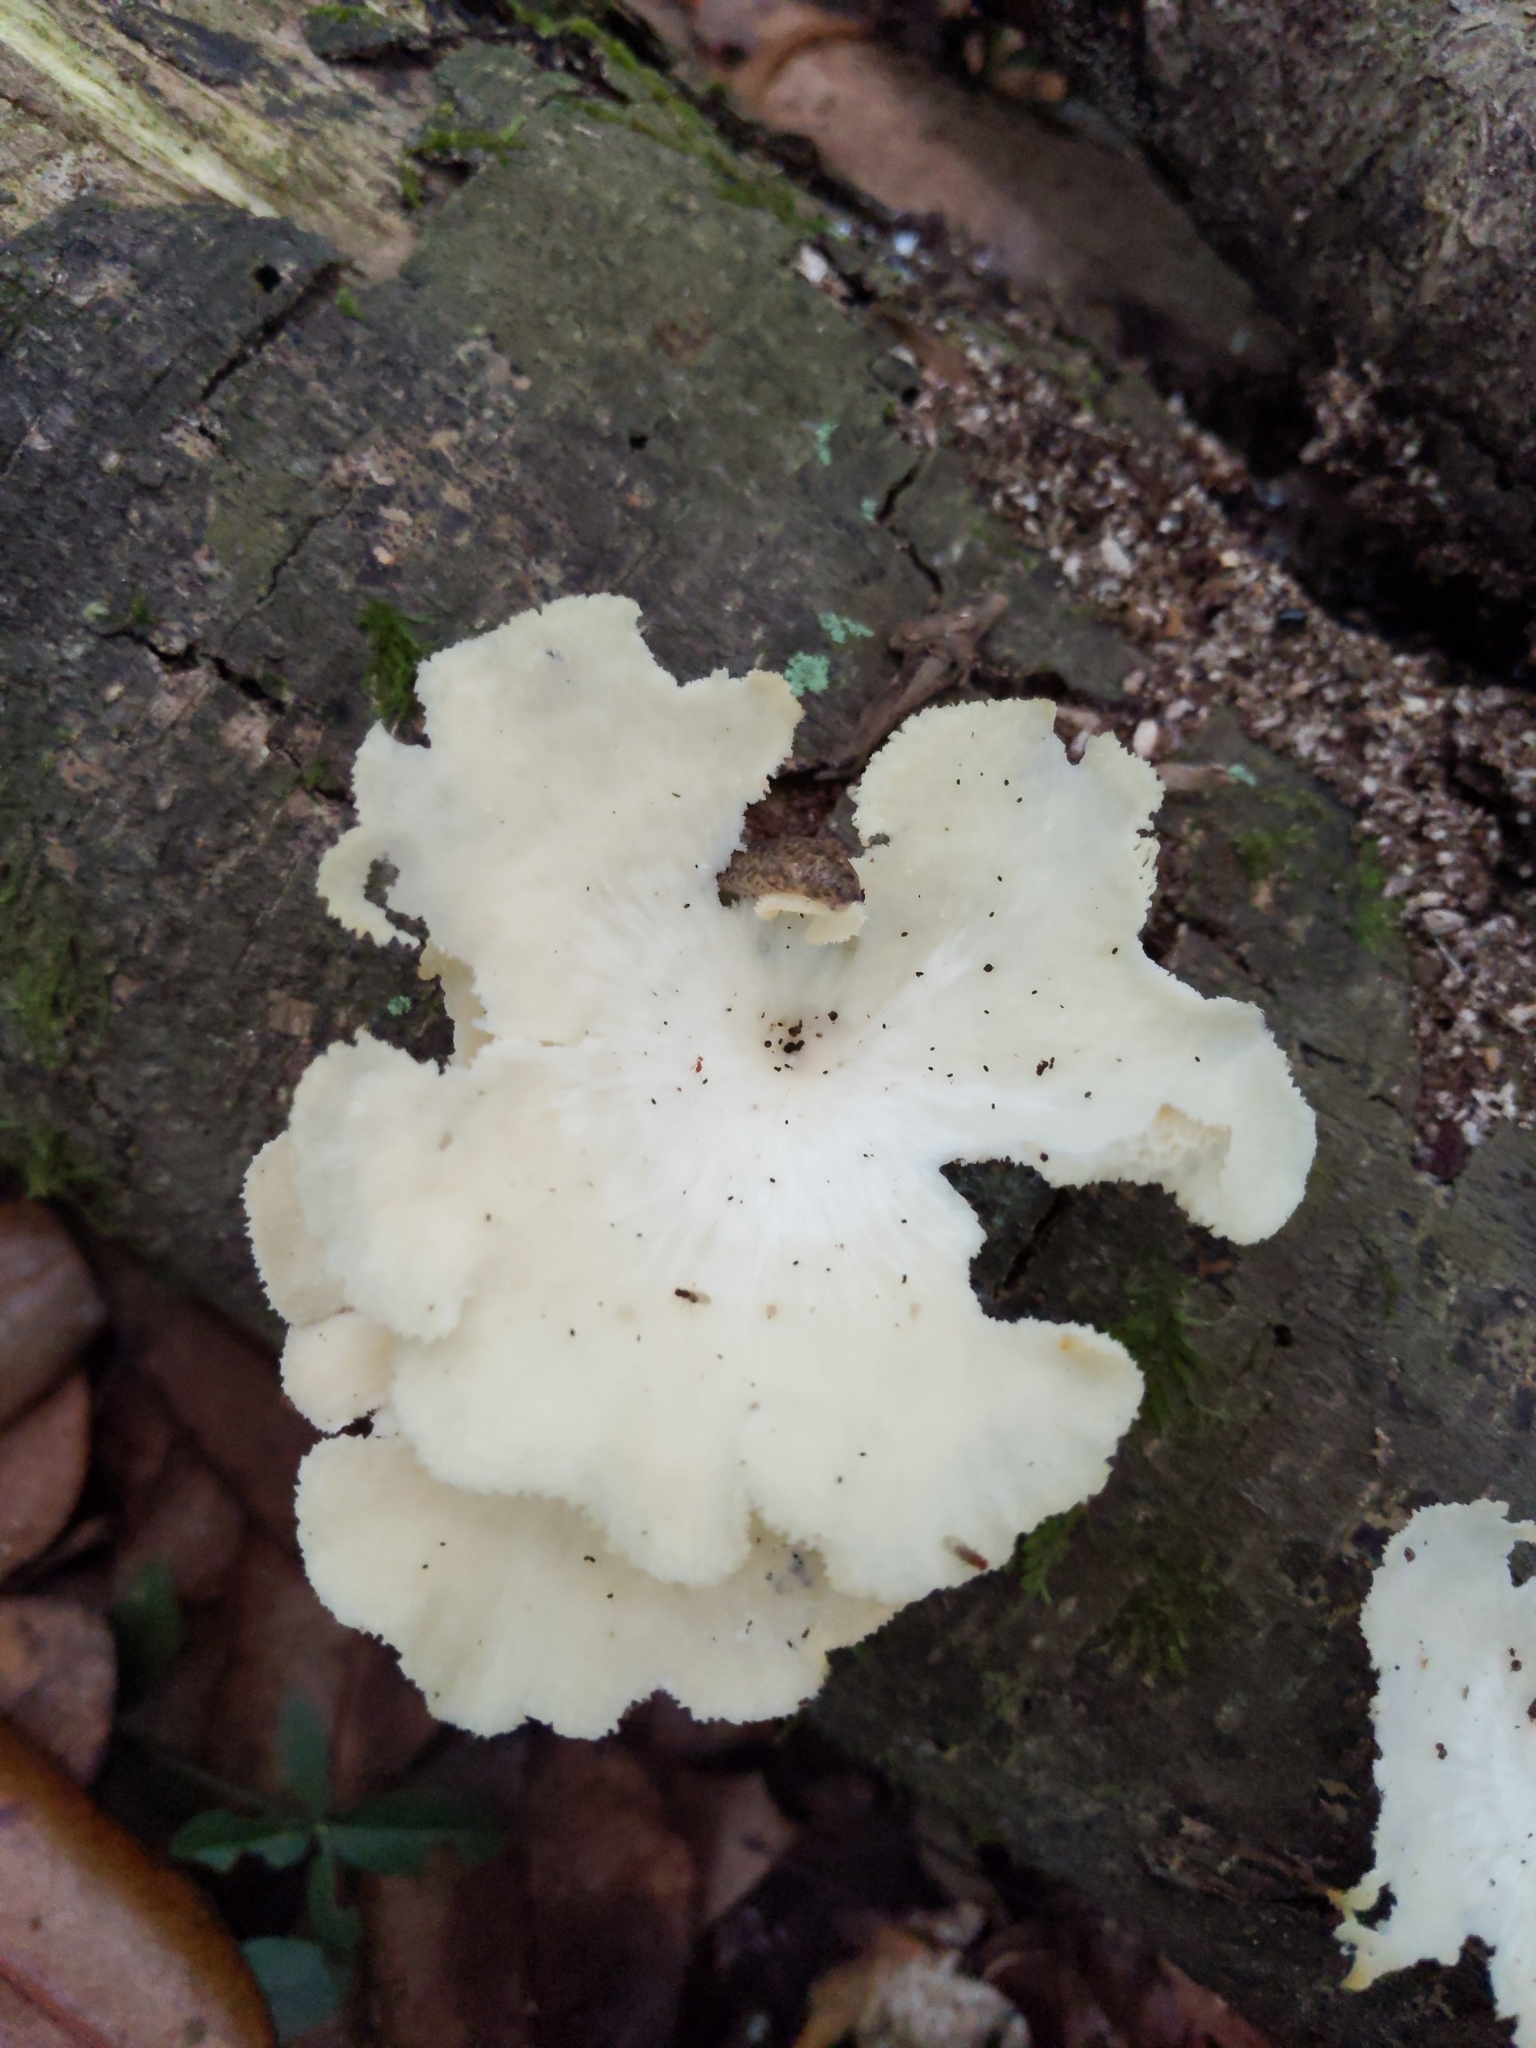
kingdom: Fungi
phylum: Basidiomycota
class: Agaricomycetes
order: Polyporales
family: Polyporaceae
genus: Favolus
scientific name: Favolus tenuiculus
